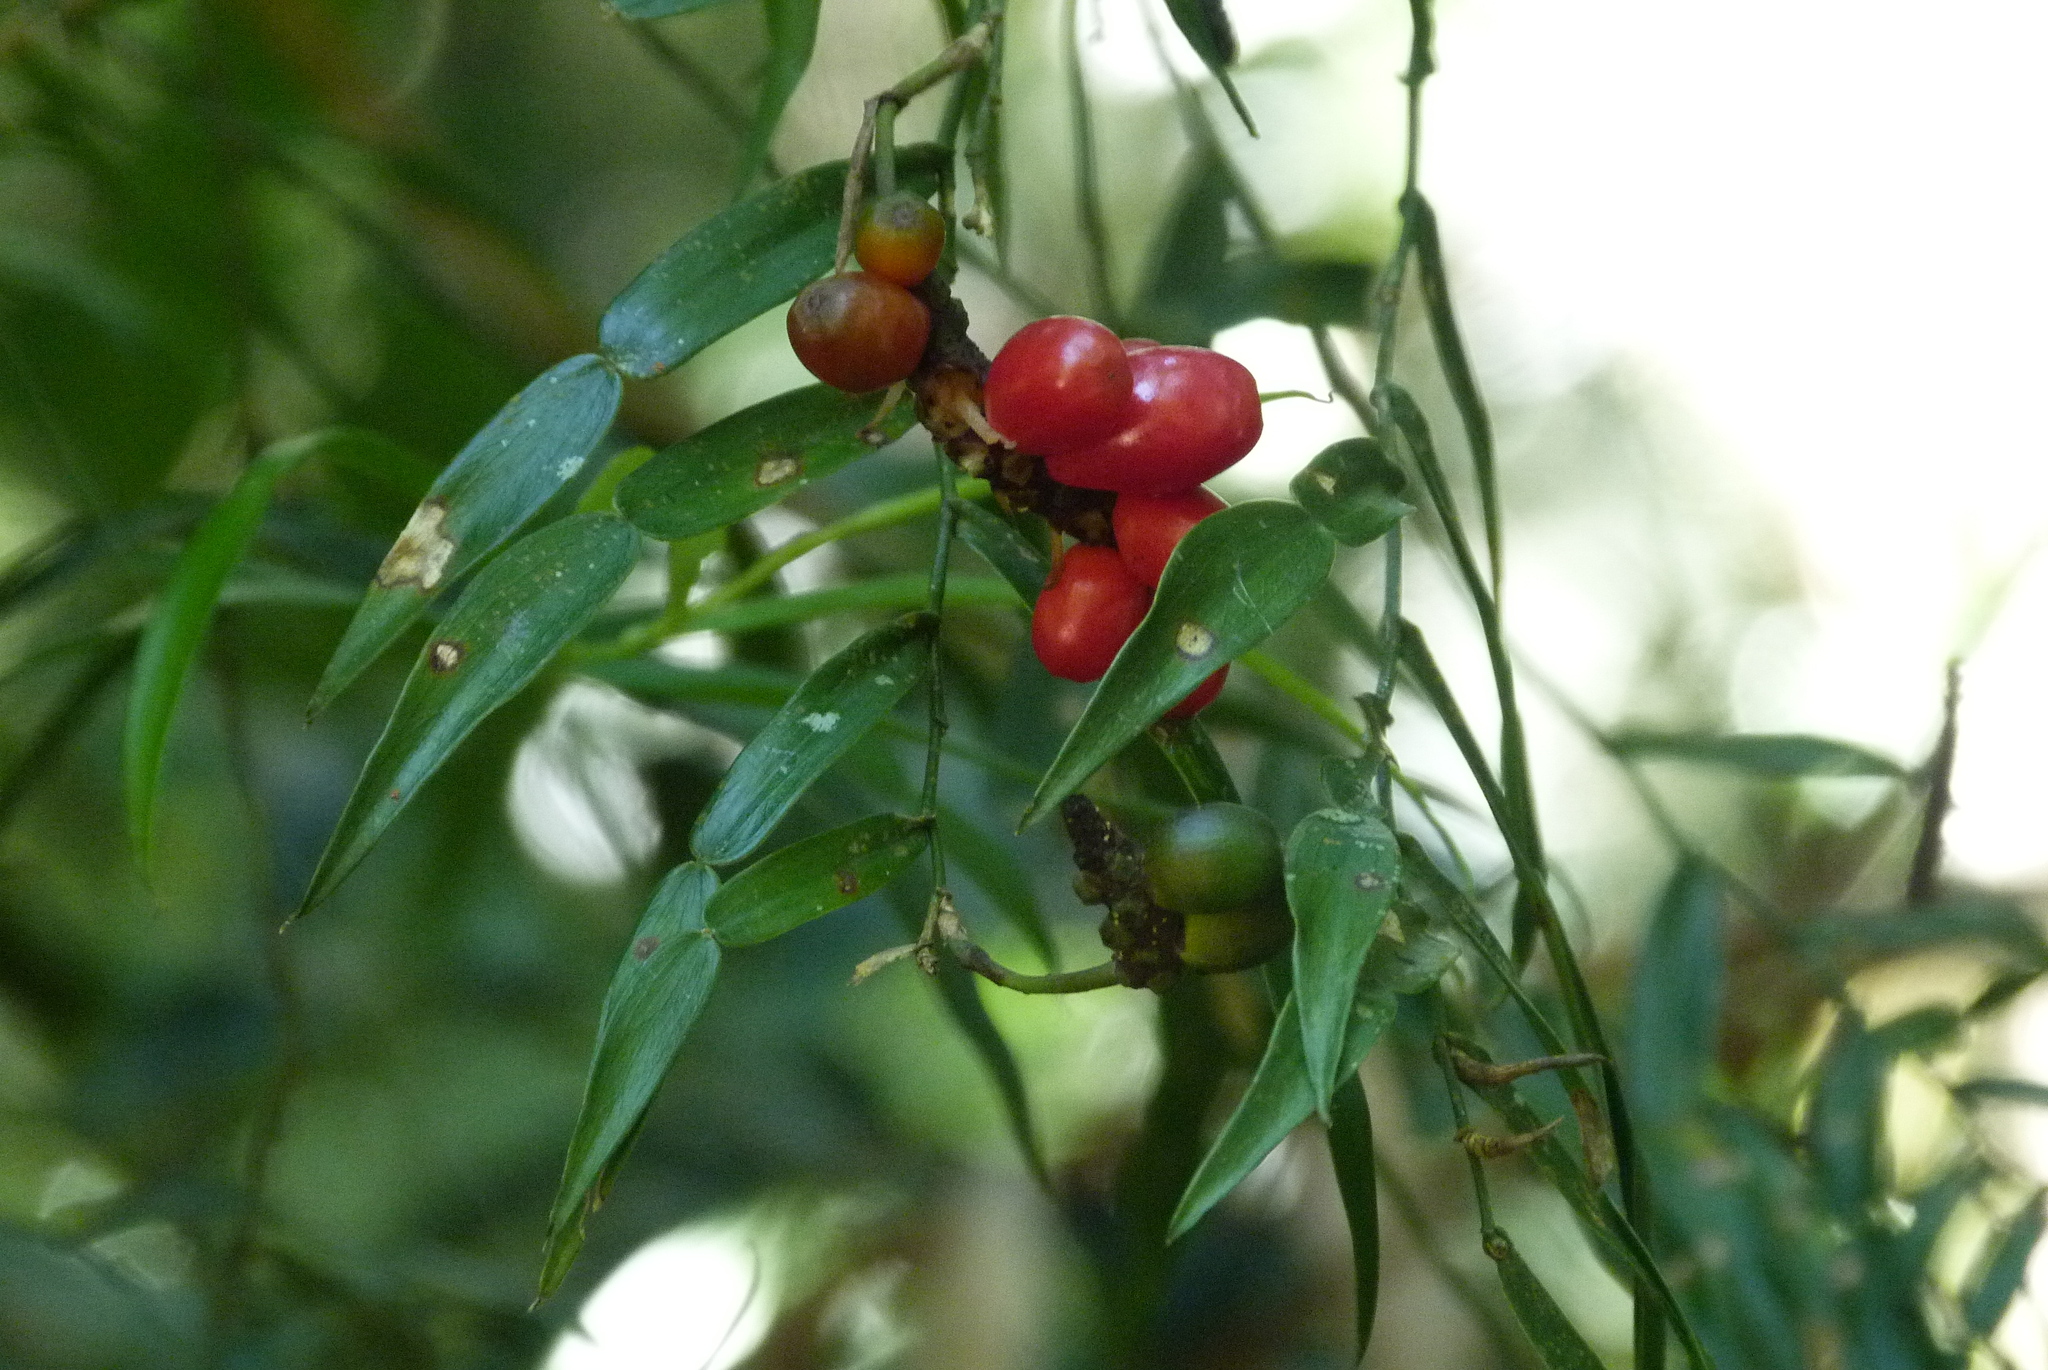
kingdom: Plantae
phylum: Tracheophyta
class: Liliopsida
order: Alismatales
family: Araceae
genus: Pothos
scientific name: Pothos longipes
